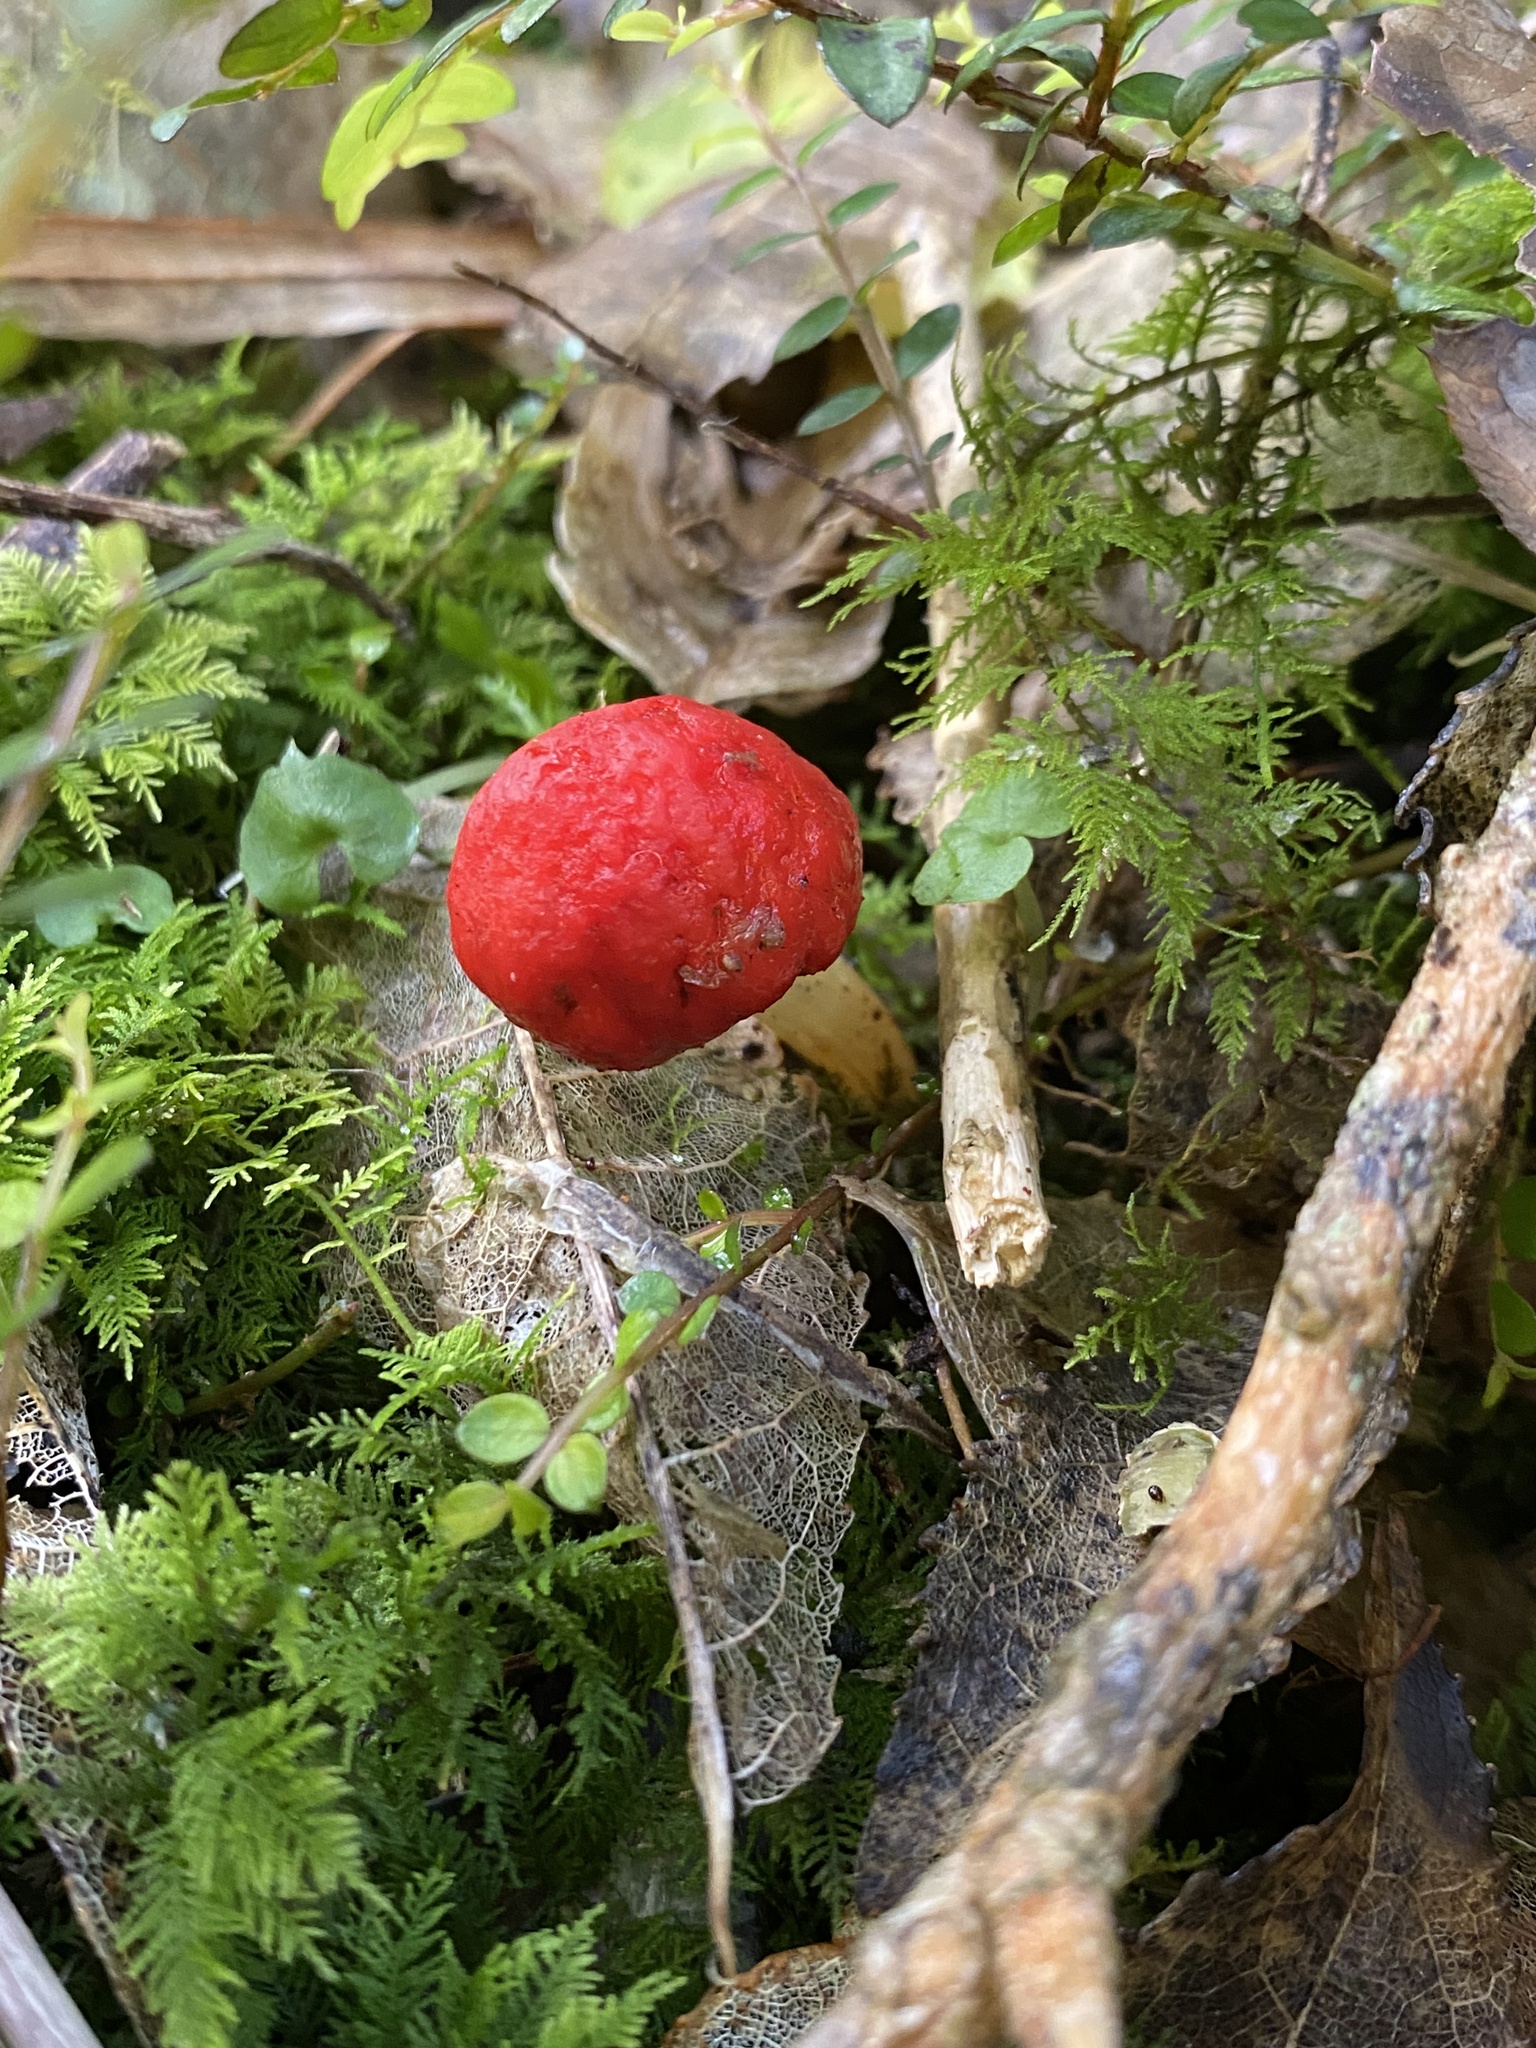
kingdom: Fungi
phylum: Basidiomycota
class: Agaricomycetes
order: Agaricales
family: Strophariaceae
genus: Leratiomyces
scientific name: Leratiomyces erythrocephalus
